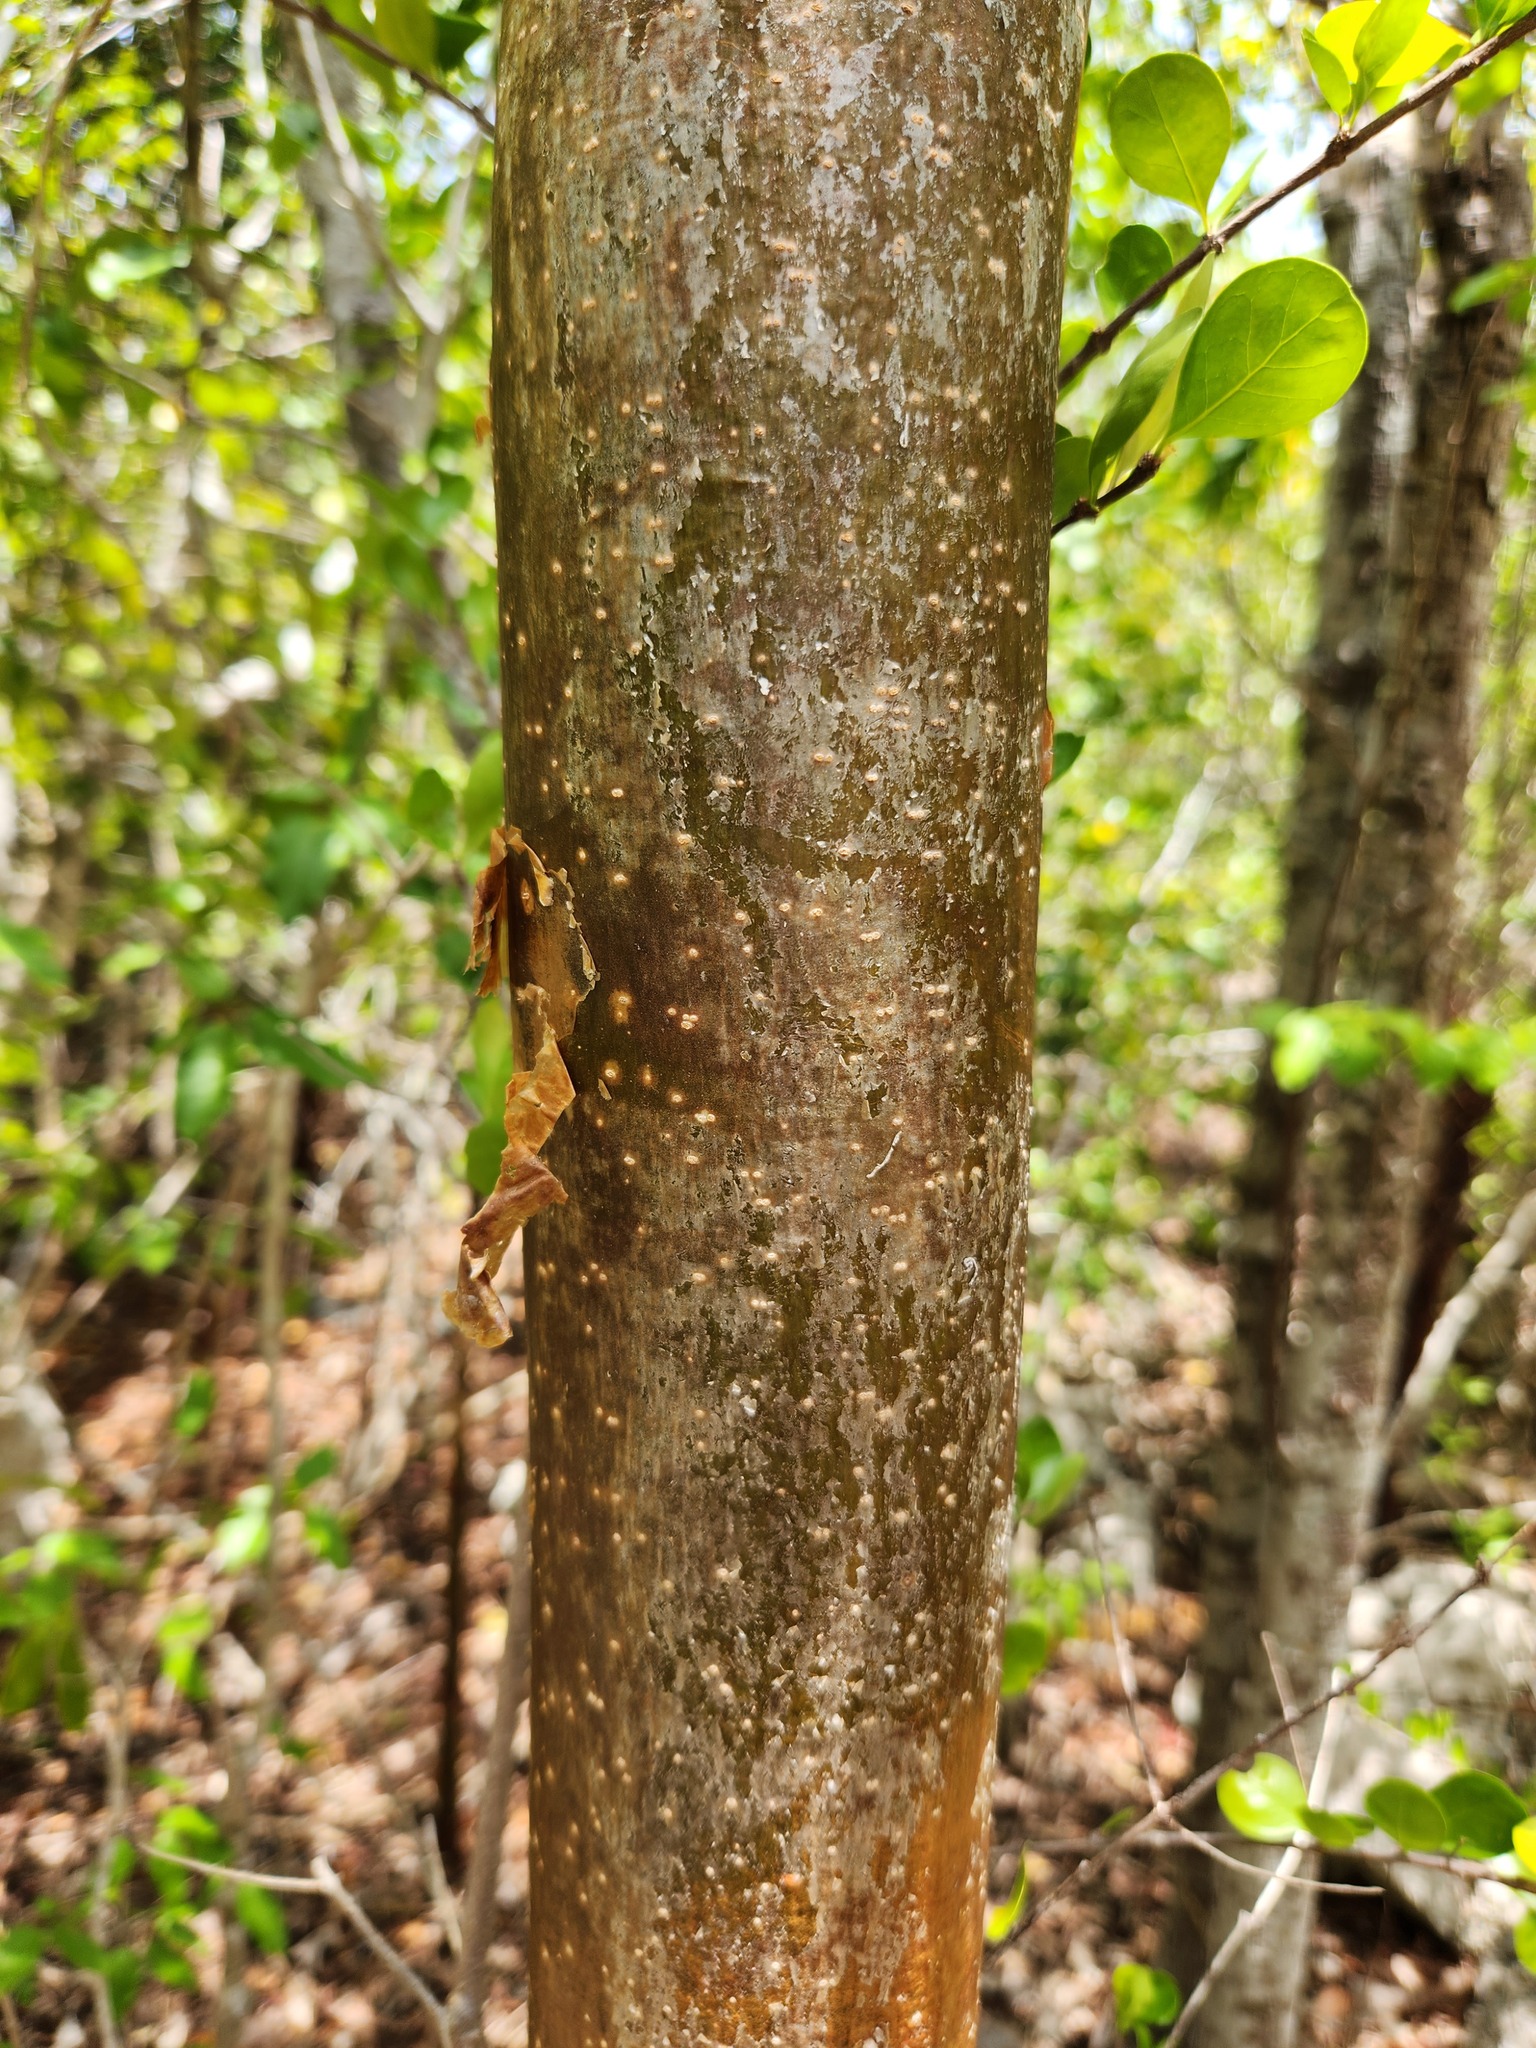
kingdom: Plantae
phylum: Tracheophyta
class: Magnoliopsida
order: Sapindales
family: Burseraceae
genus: Bursera
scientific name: Bursera simaruba
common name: Turpentine tree
